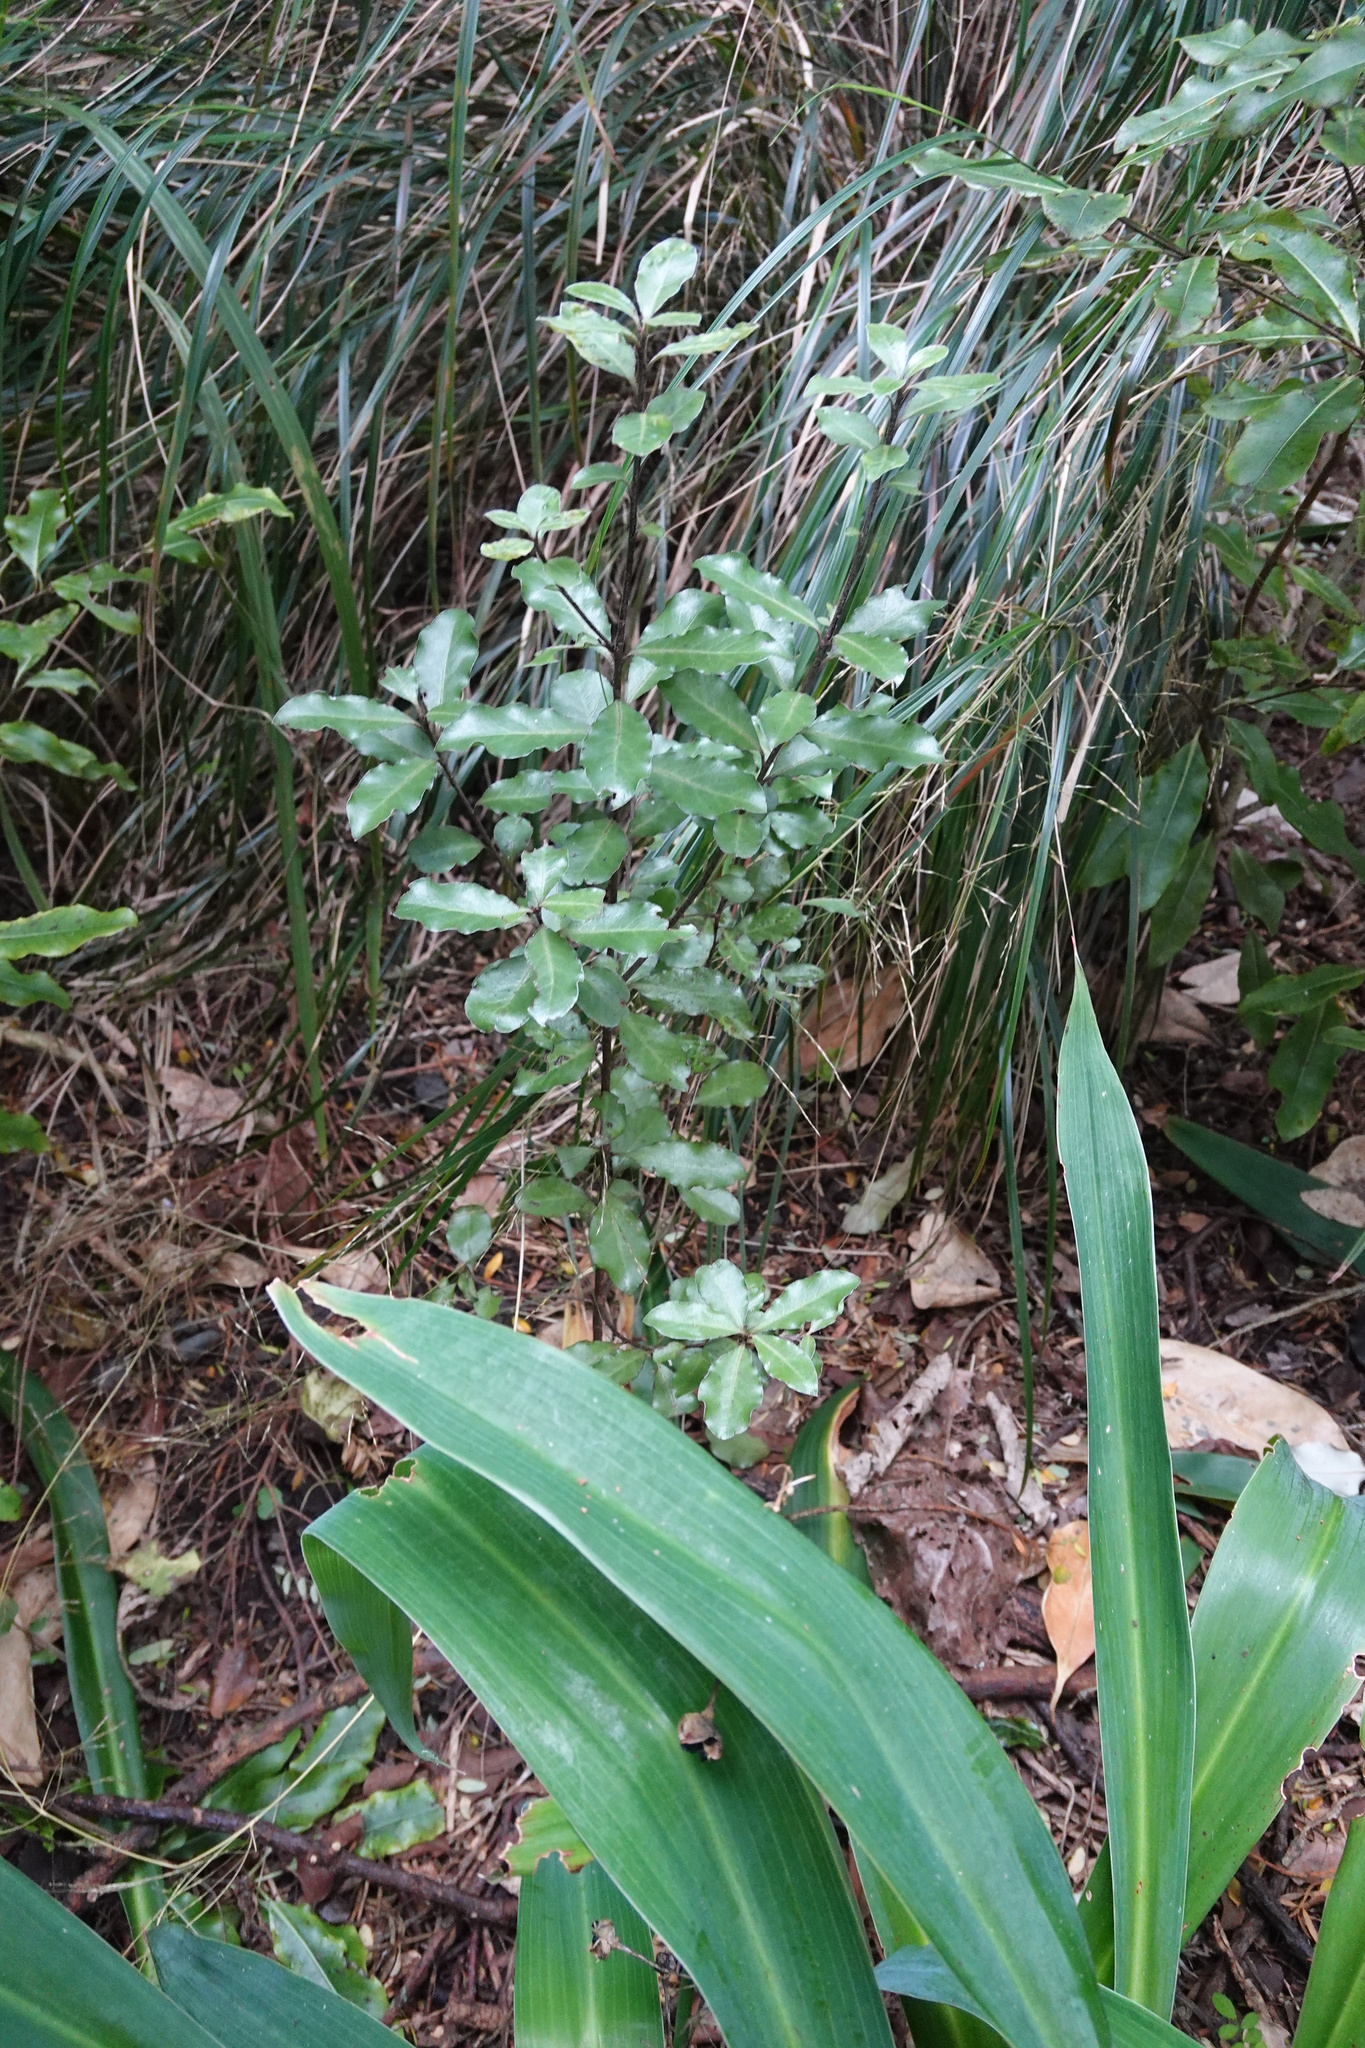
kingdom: Plantae
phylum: Tracheophyta
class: Magnoliopsida
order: Apiales
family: Pittosporaceae
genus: Pittosporum
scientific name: Pittosporum tenuifolium
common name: Kohuhu
